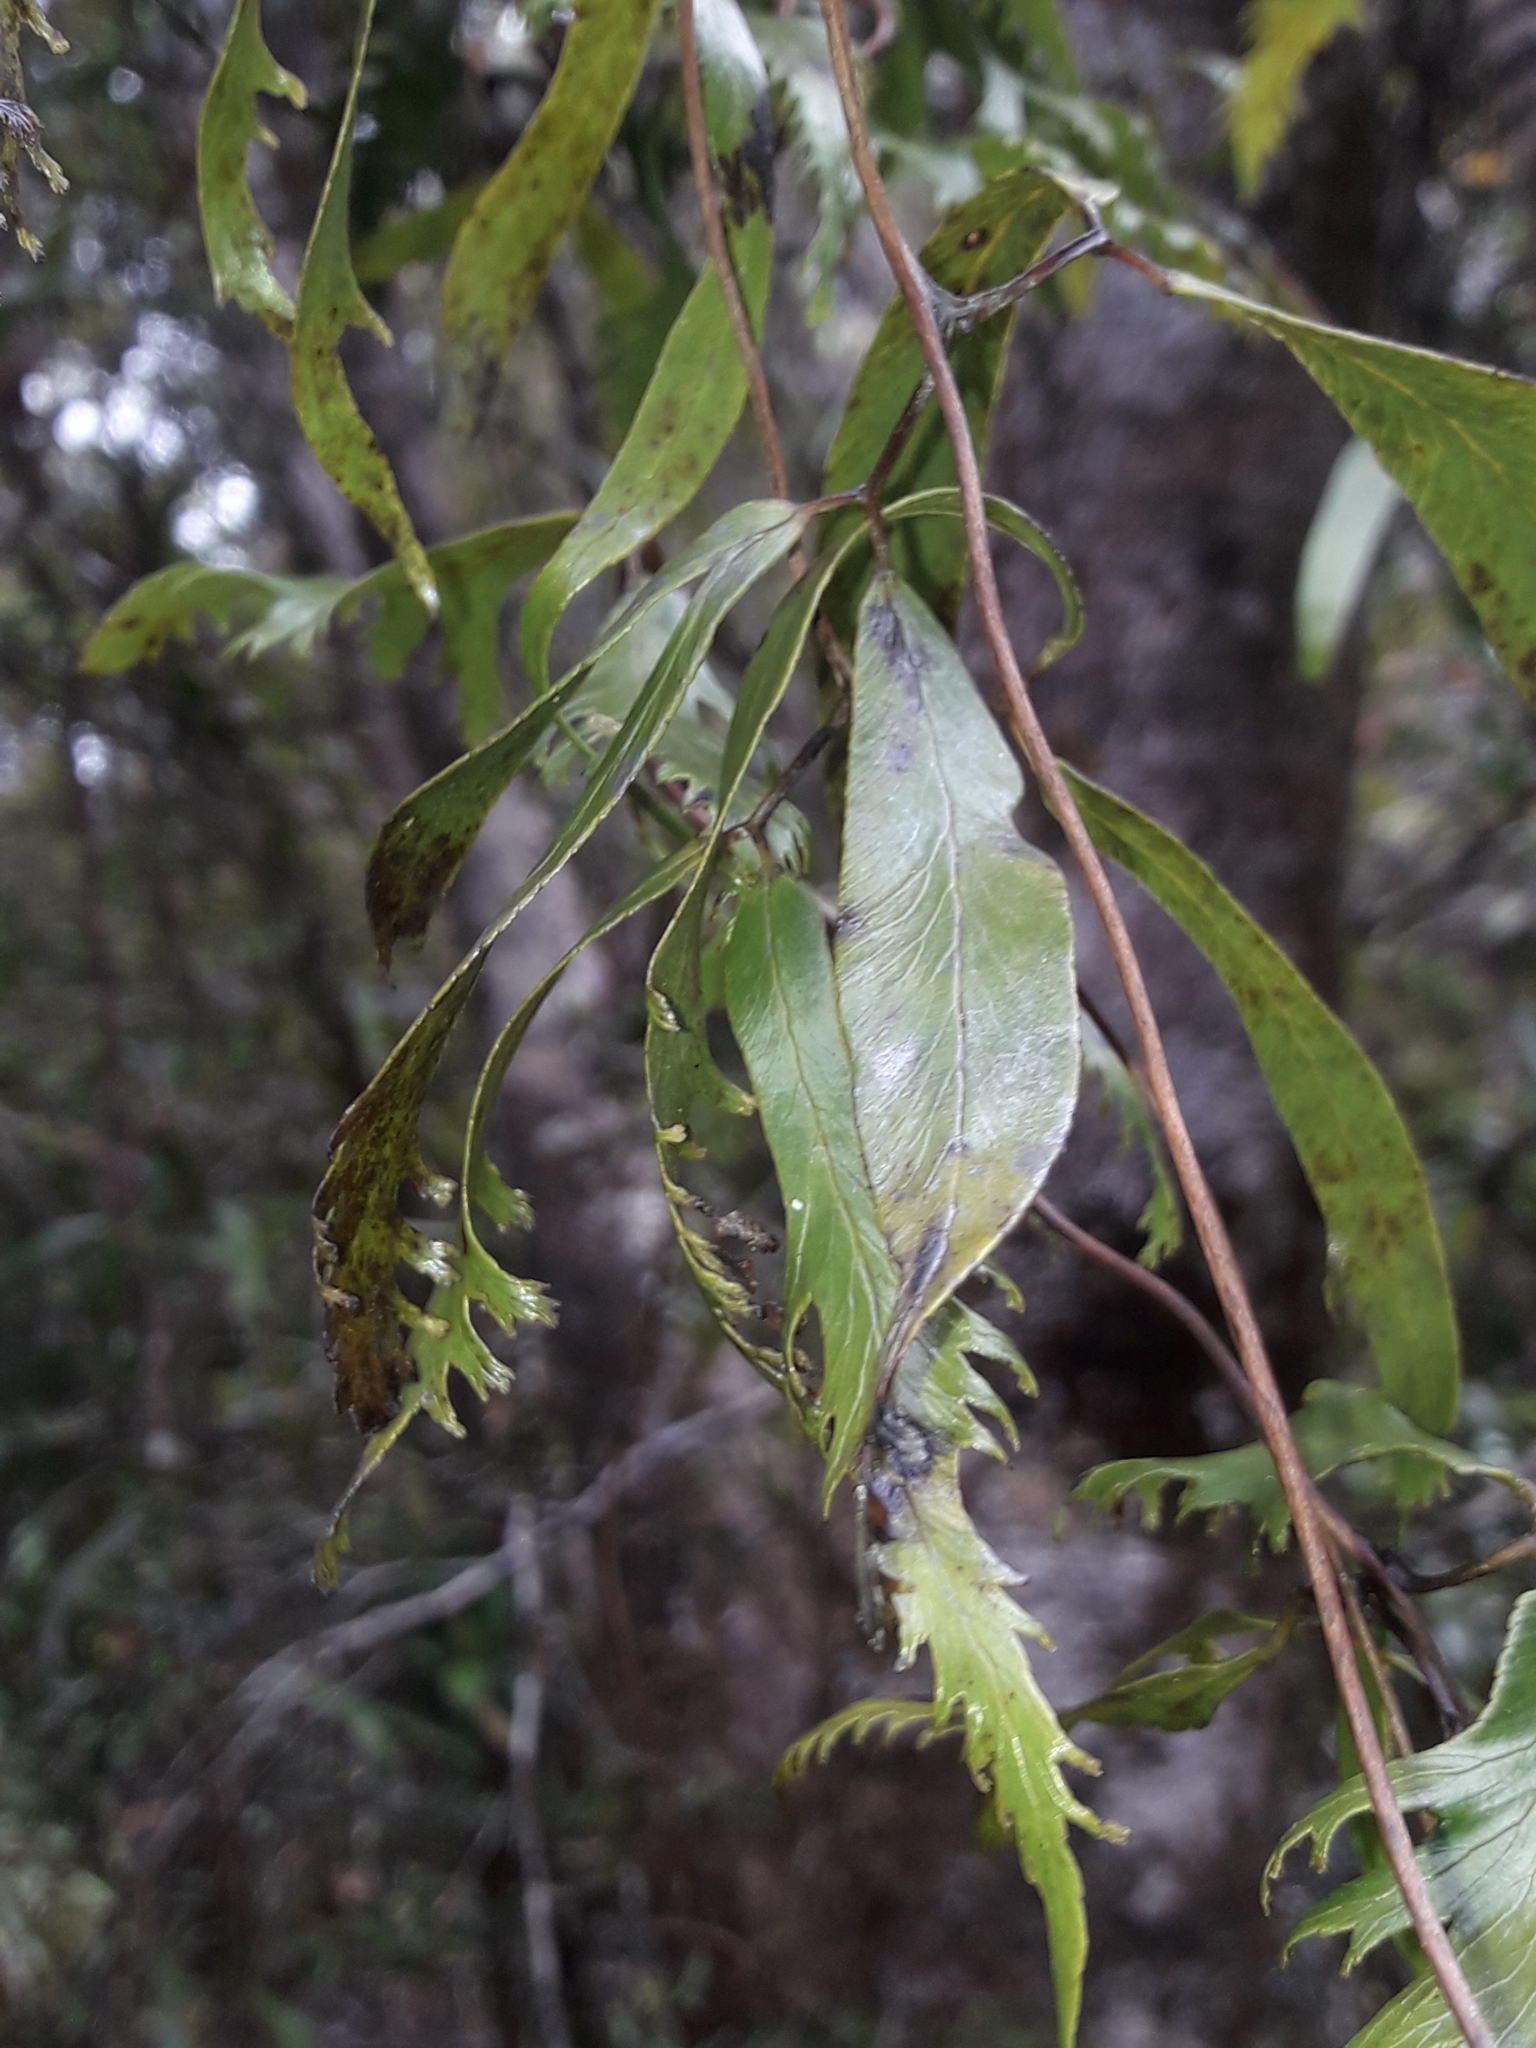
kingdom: Plantae
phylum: Tracheophyta
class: Polypodiopsida
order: Schizaeales
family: Lygodiaceae
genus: Lygodium
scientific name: Lygodium hians
